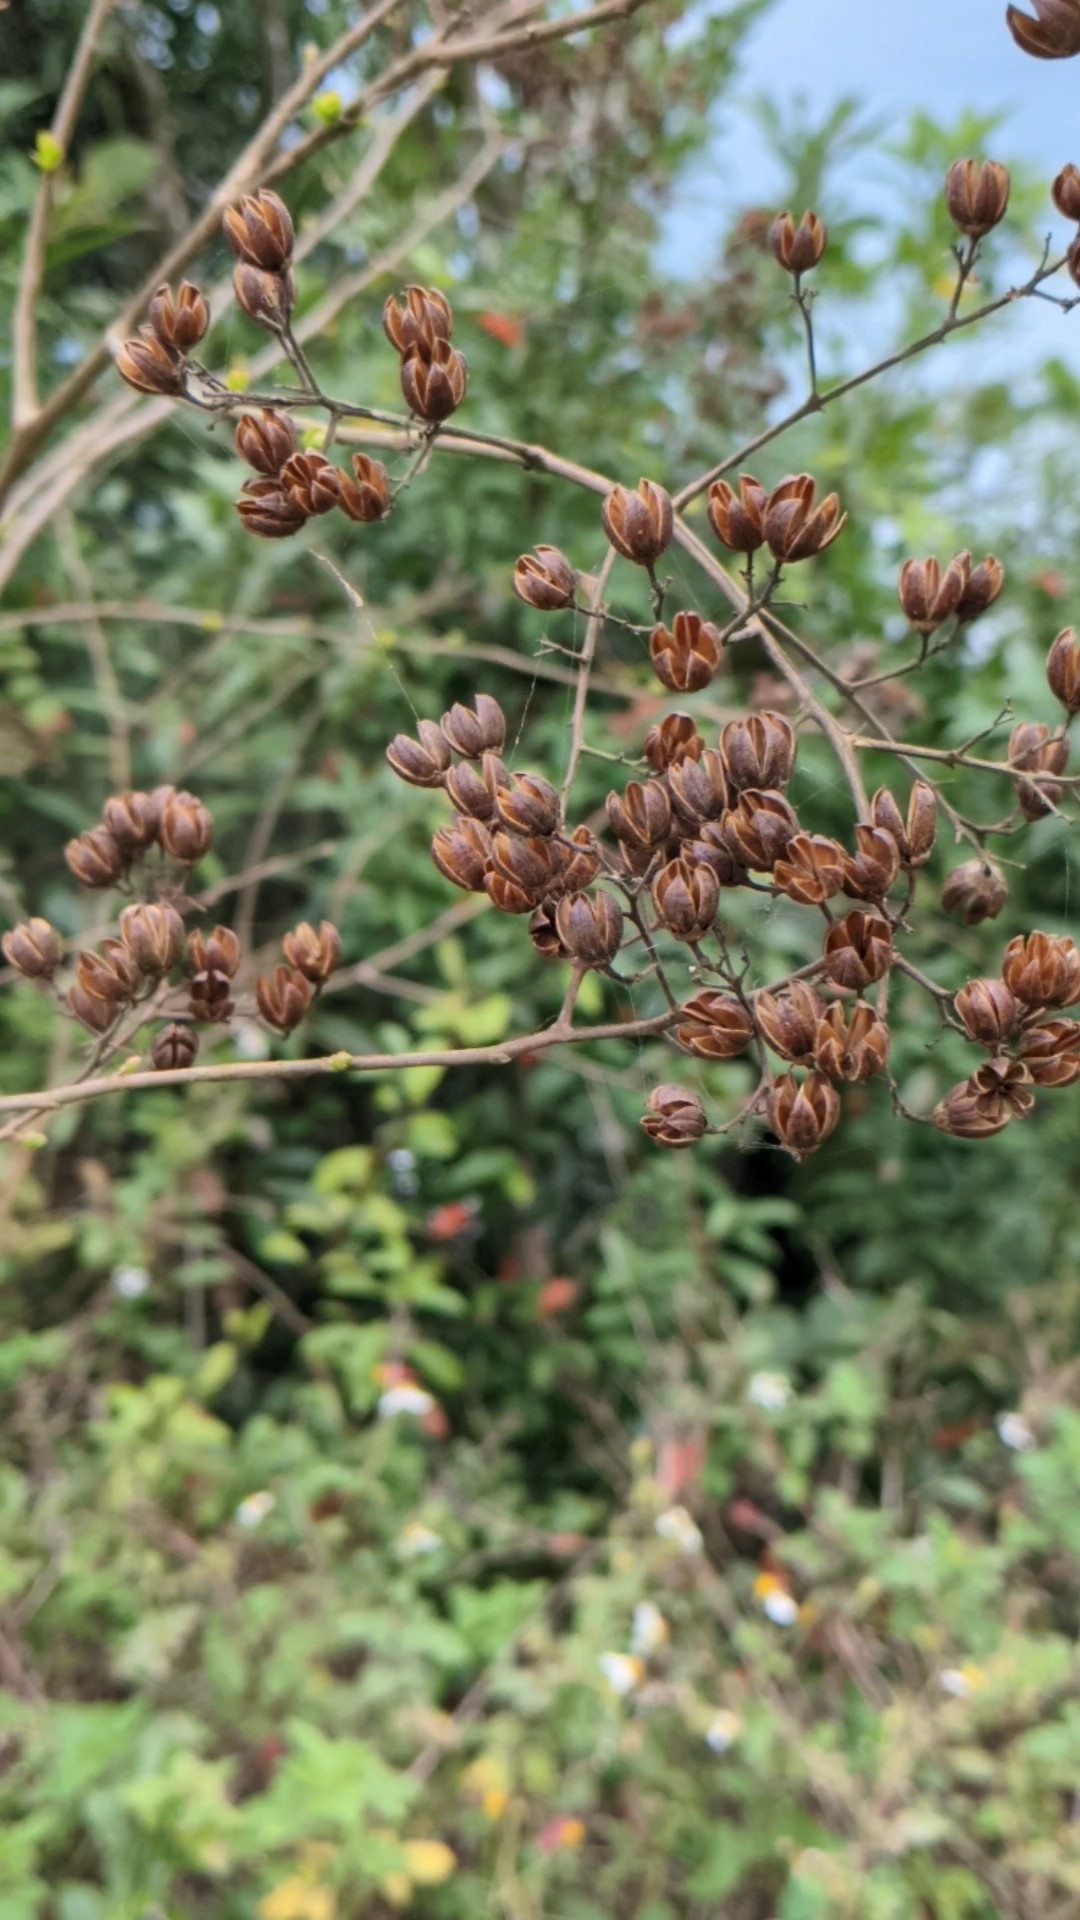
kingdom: Plantae
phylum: Tracheophyta
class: Magnoliopsida
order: Myrtales
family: Lythraceae
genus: Lagerstroemia
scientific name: Lagerstroemia subcostata
